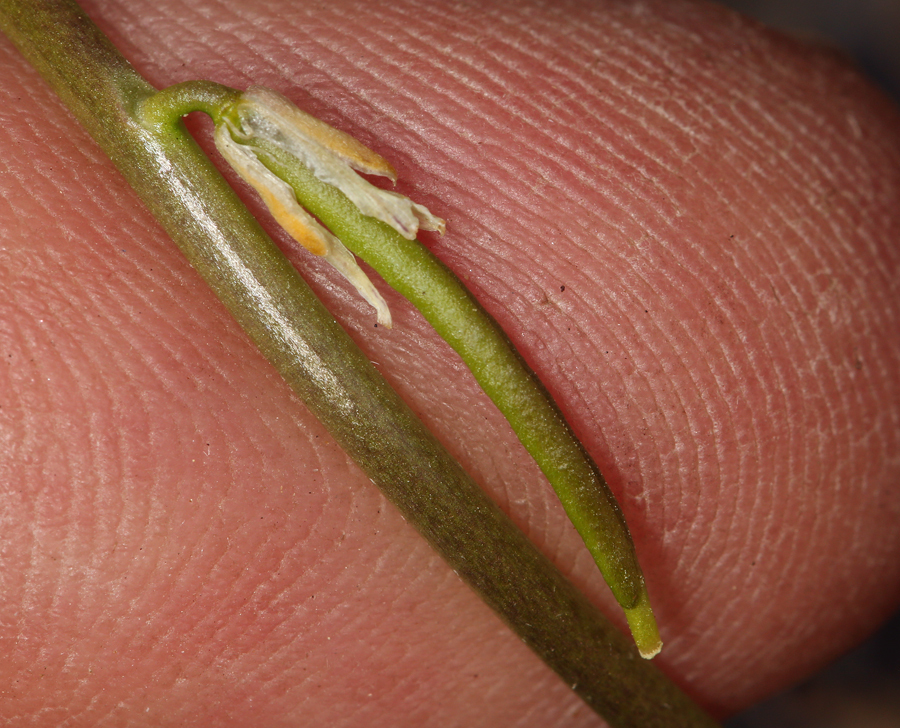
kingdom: Plantae
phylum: Tracheophyta
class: Magnoliopsida
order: Brassicales
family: Brassicaceae
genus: Streptanthus
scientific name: Streptanthus cooperi
